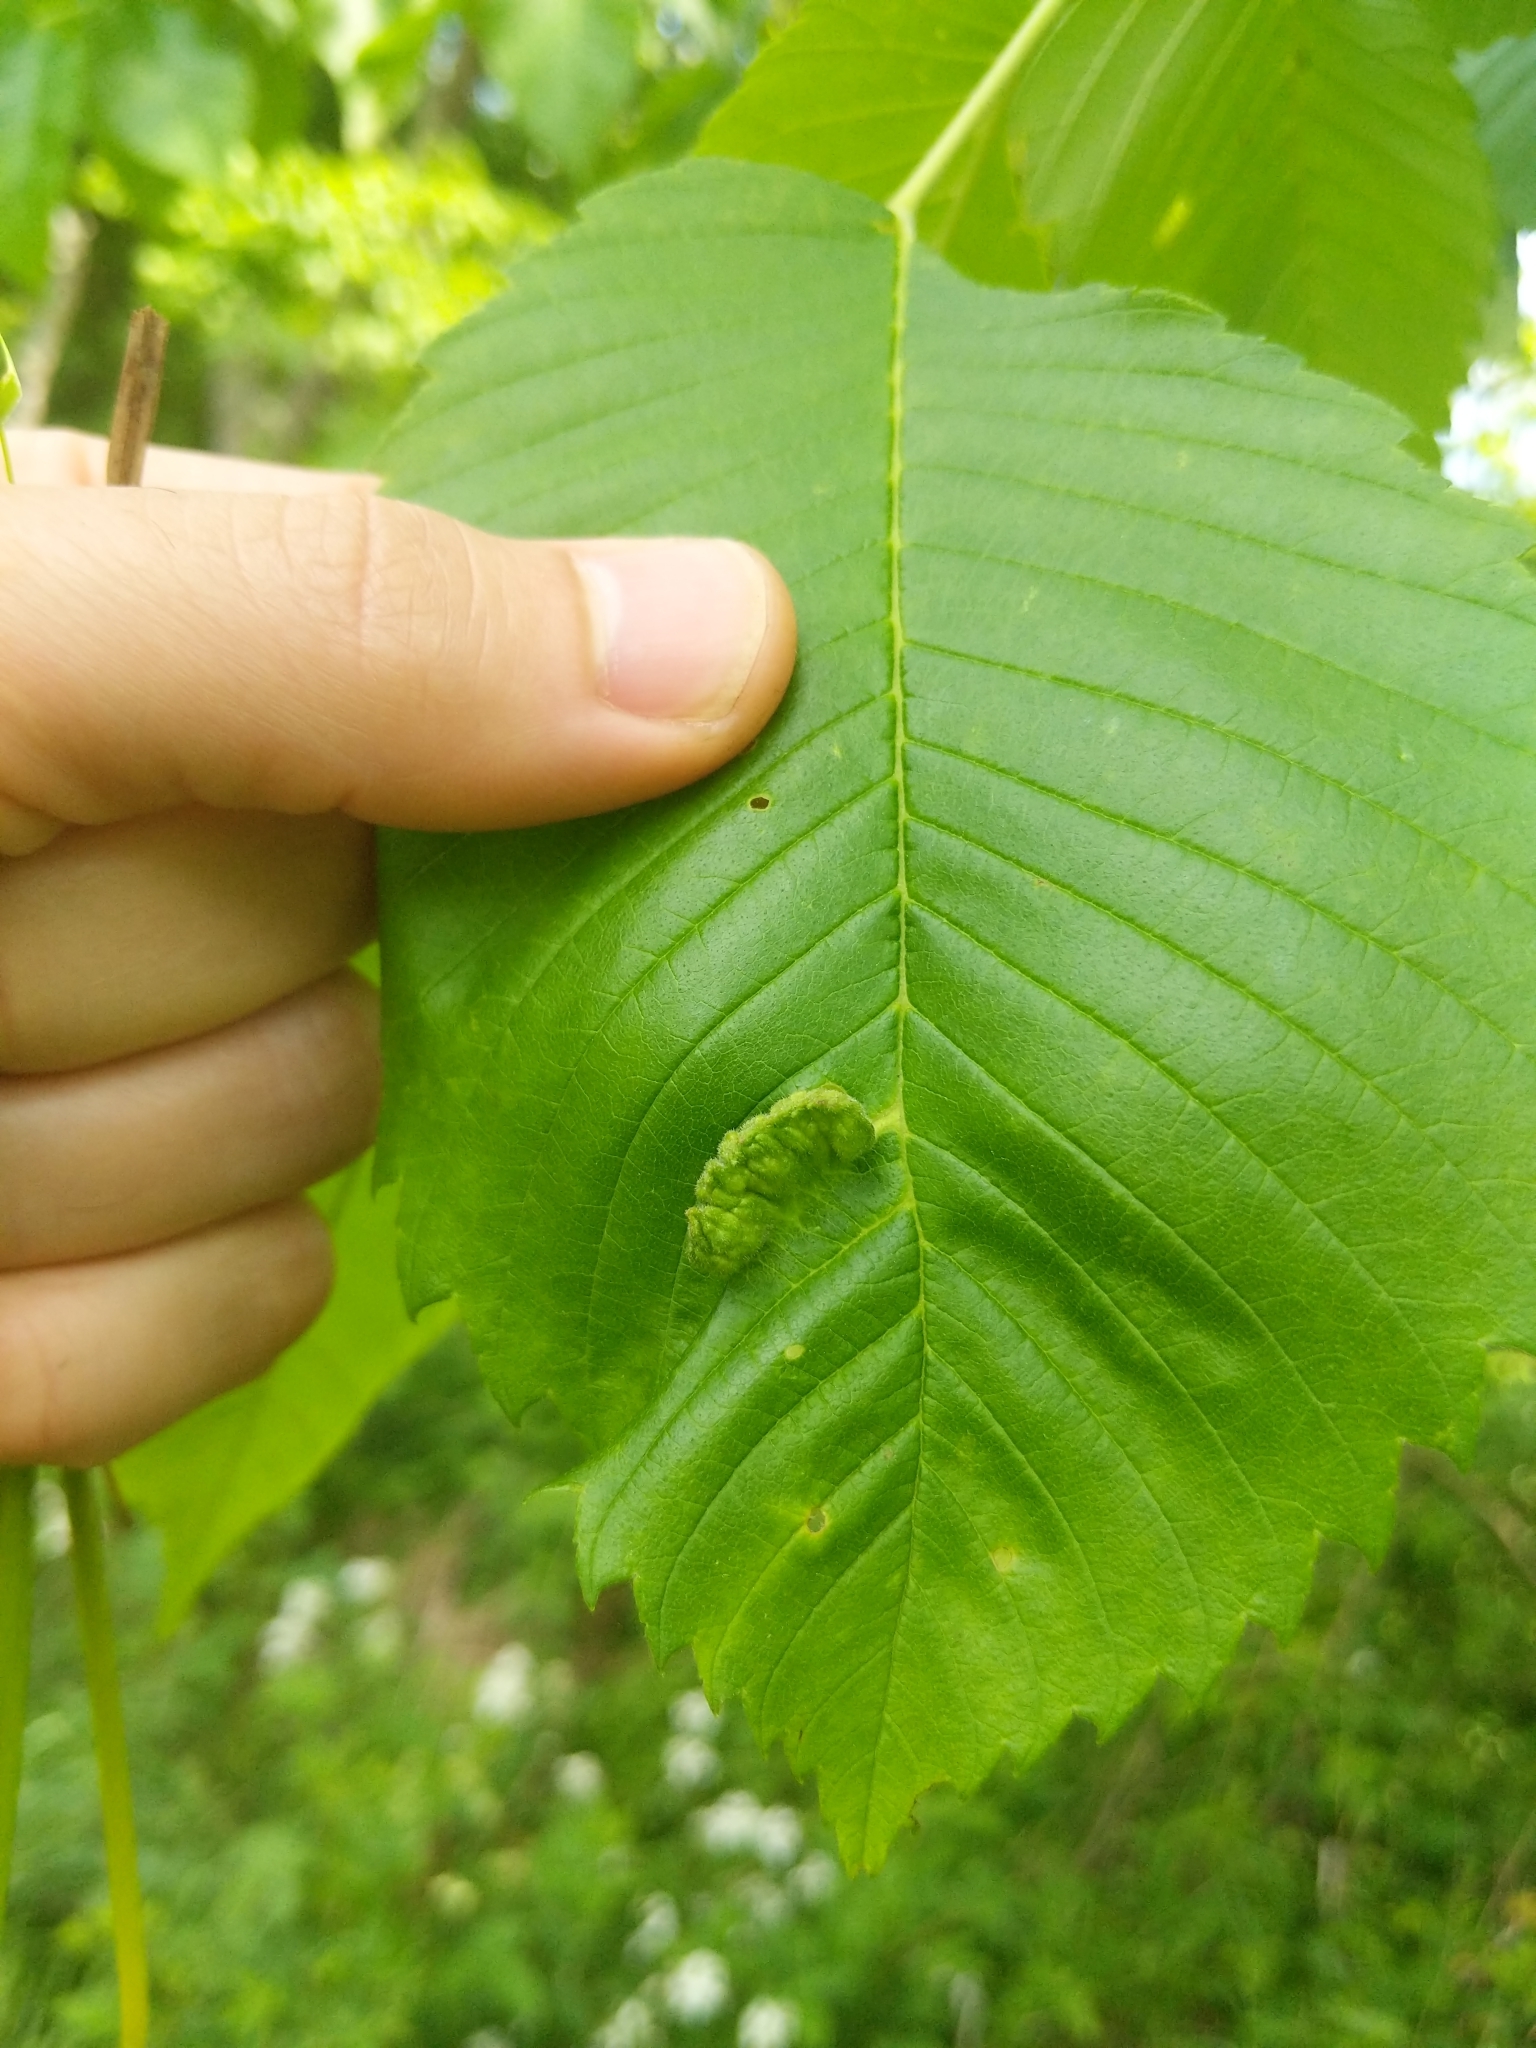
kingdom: Animalia
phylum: Arthropoda
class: Insecta
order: Hemiptera
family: Aphididae
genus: Colopha
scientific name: Colopha ulmicola
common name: Elm cockscombgall aphid
